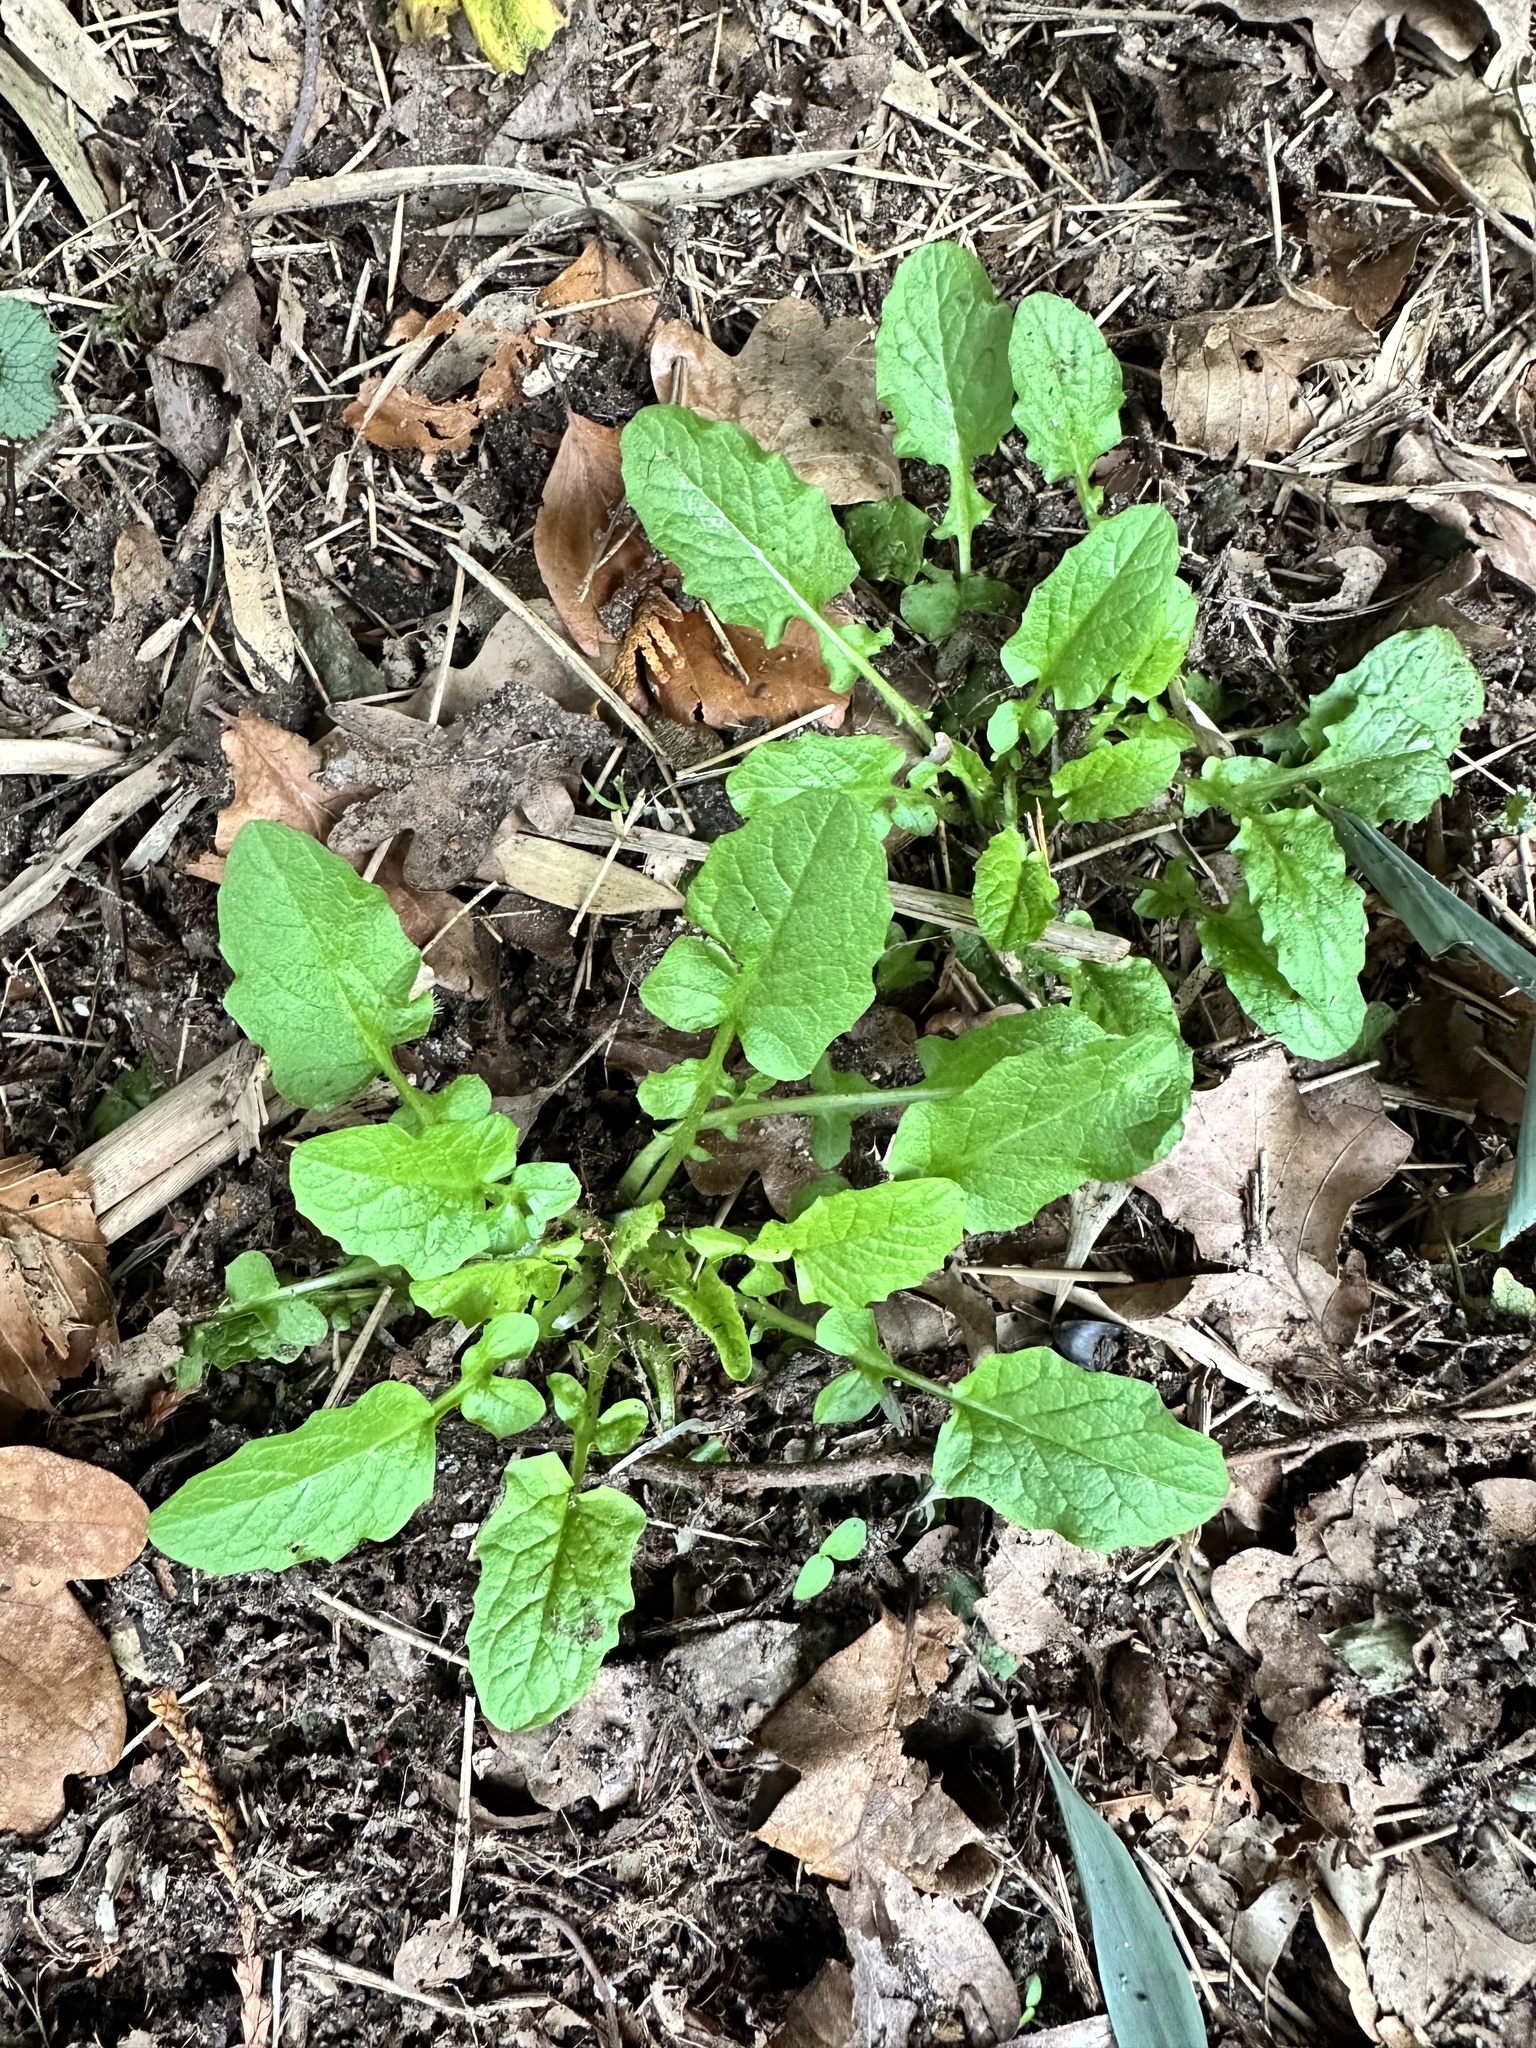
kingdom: Plantae
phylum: Tracheophyta
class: Magnoliopsida
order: Asterales
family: Asteraceae
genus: Lapsana
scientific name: Lapsana communis
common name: Nipplewort
